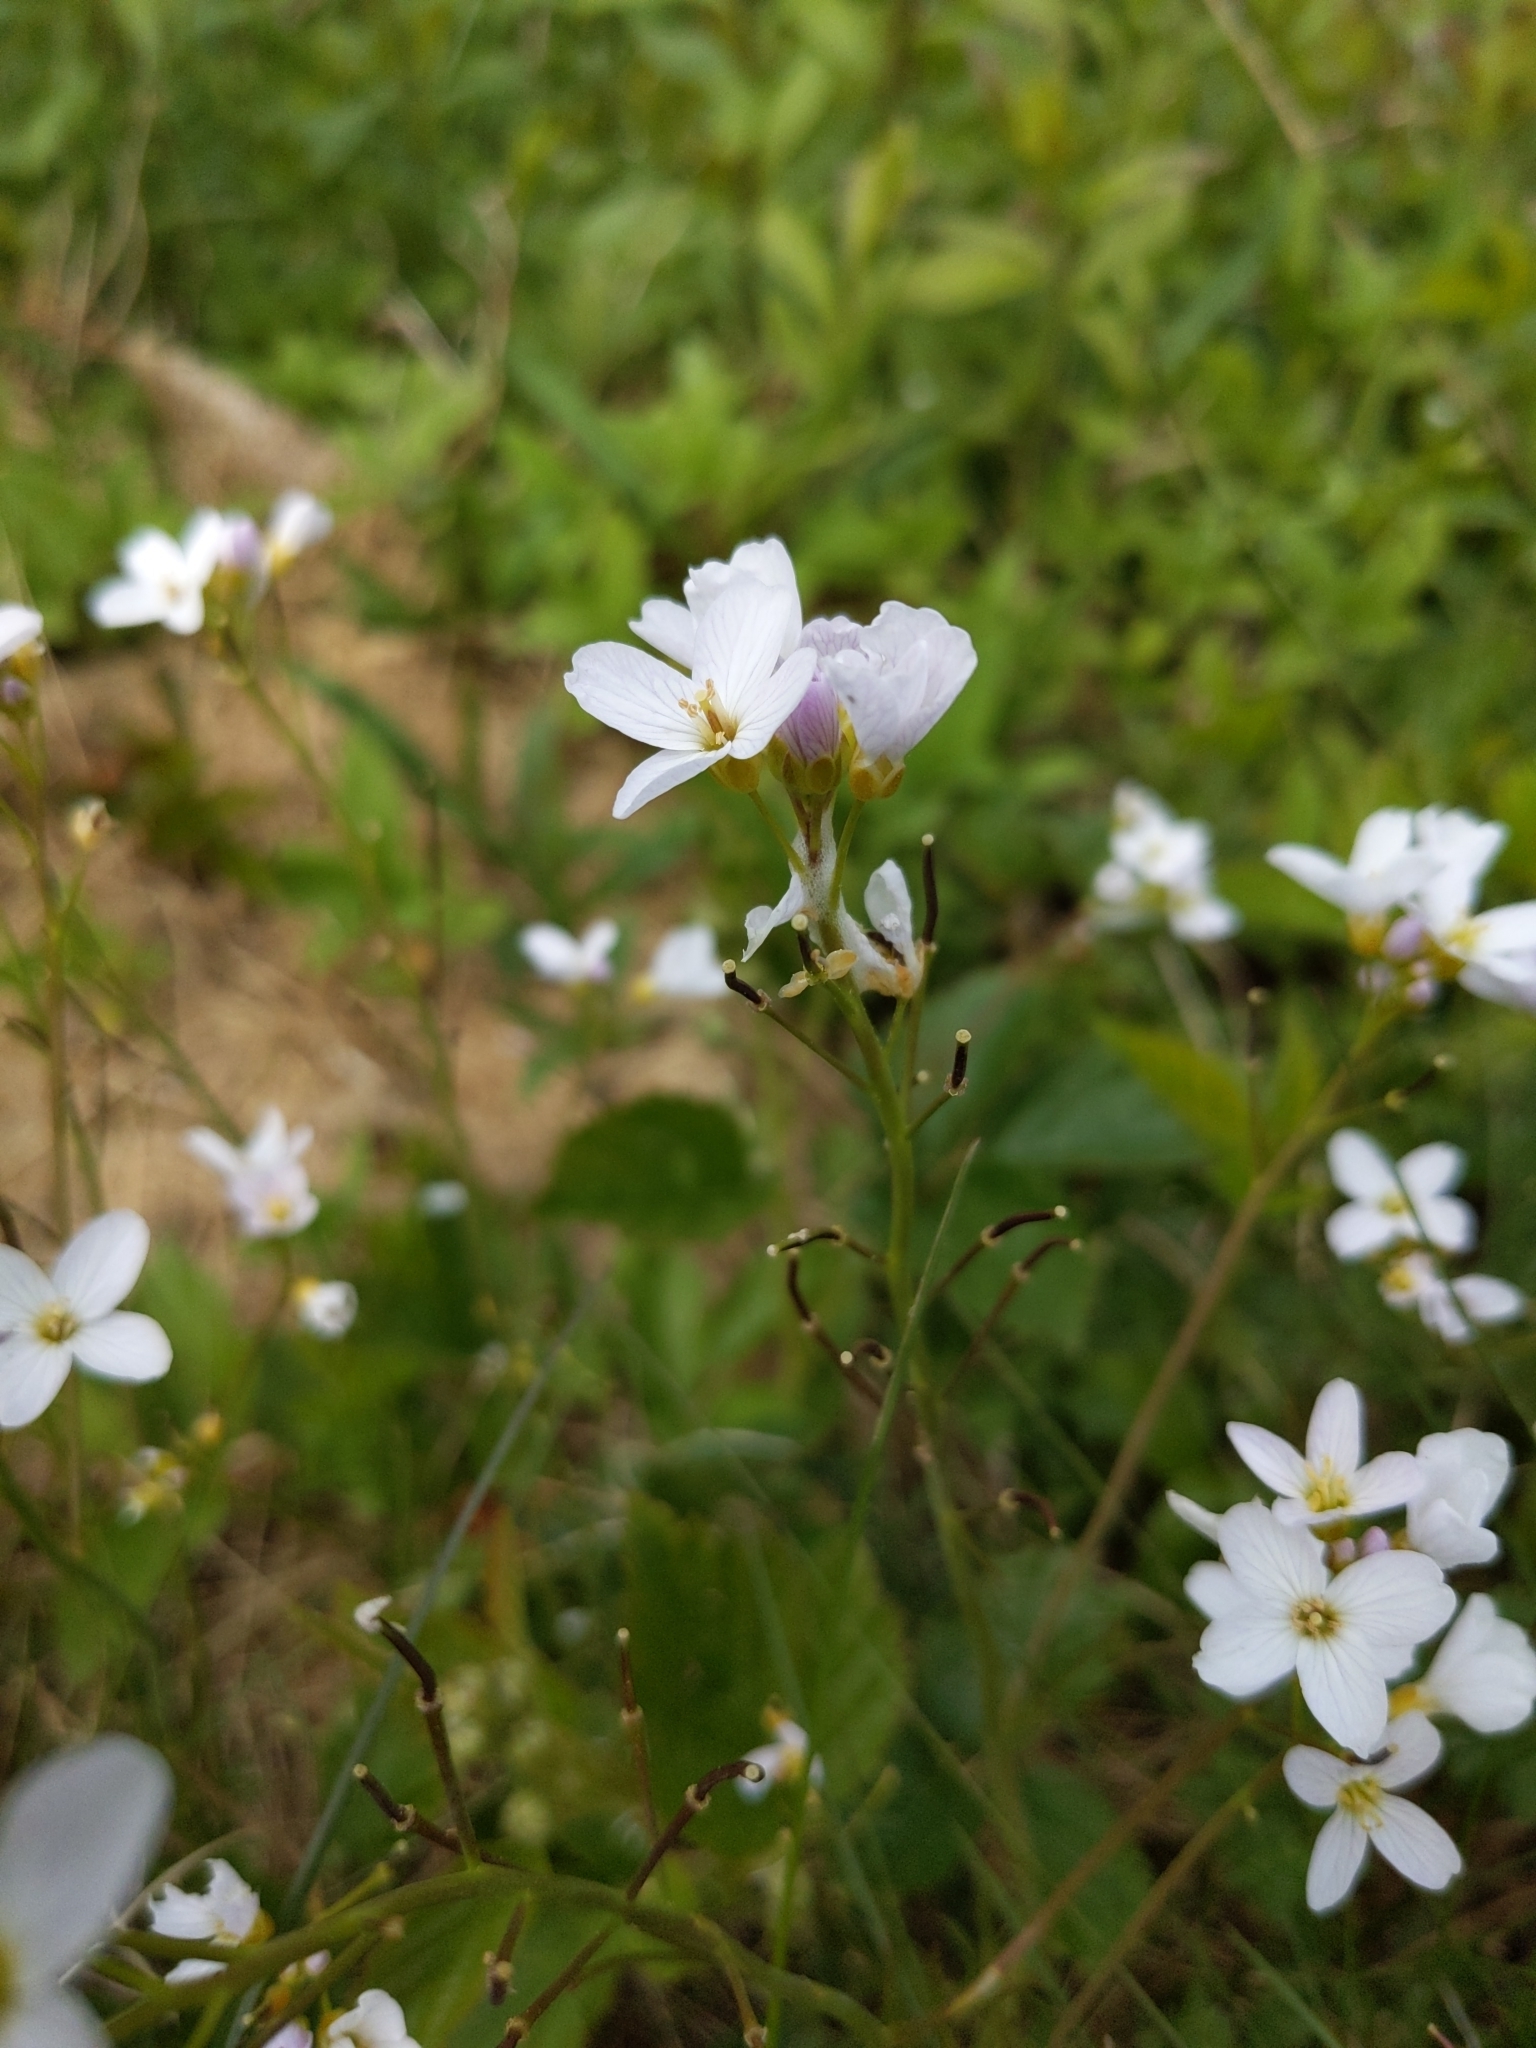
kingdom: Plantae
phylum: Tracheophyta
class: Magnoliopsida
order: Brassicales
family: Brassicaceae
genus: Cardamine
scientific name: Cardamine pratensis
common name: Cuckoo flower
